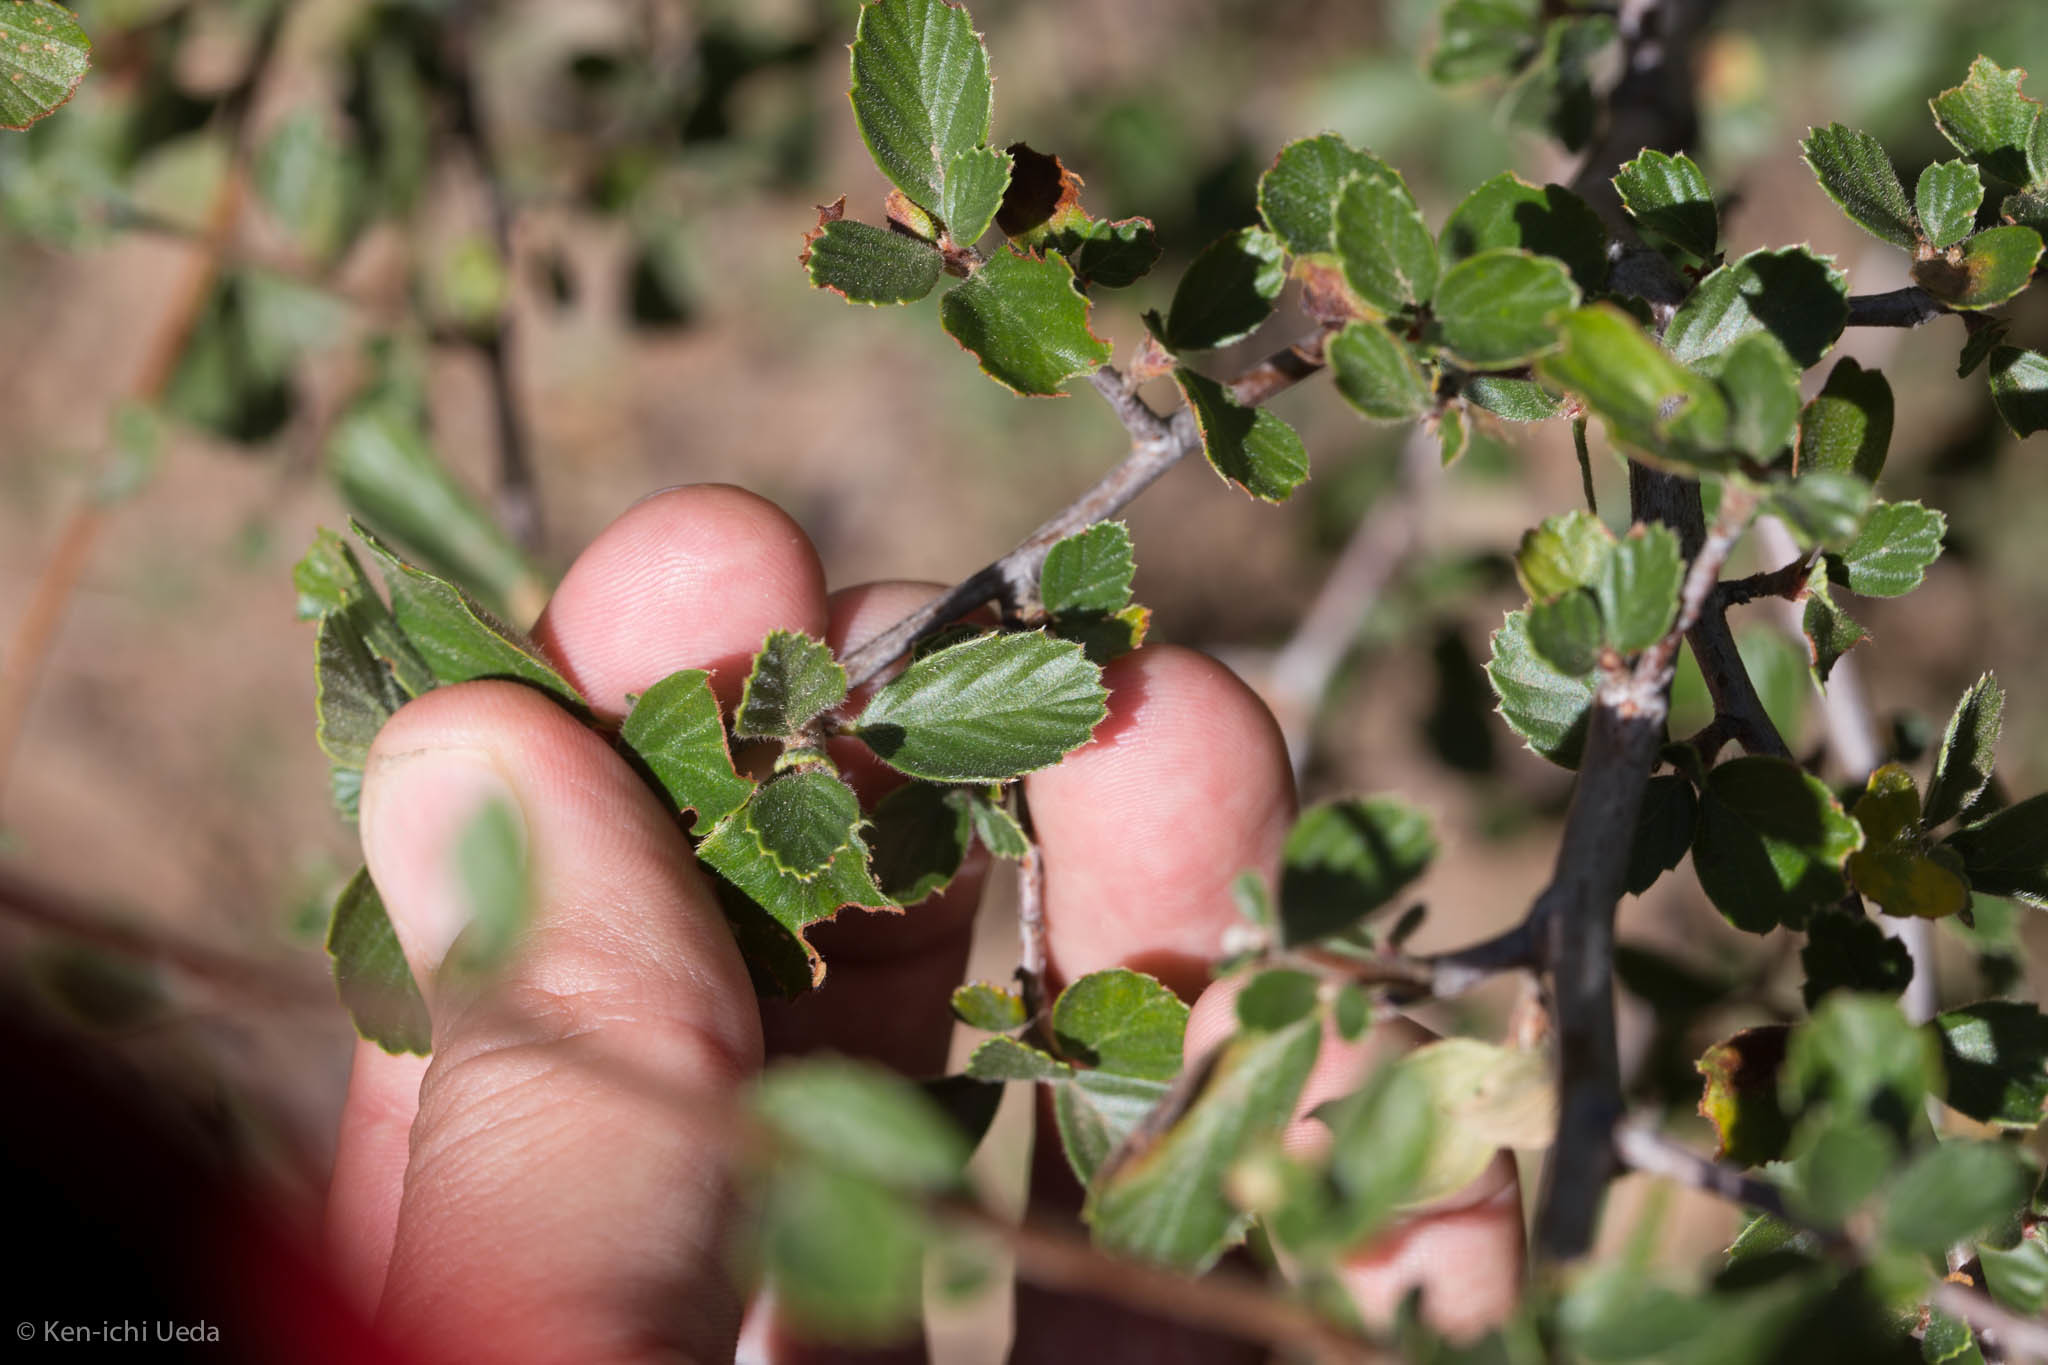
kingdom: Plantae
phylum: Tracheophyta
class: Magnoliopsida
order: Rosales
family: Rosaceae
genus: Cercocarpus
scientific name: Cercocarpus betuloides
